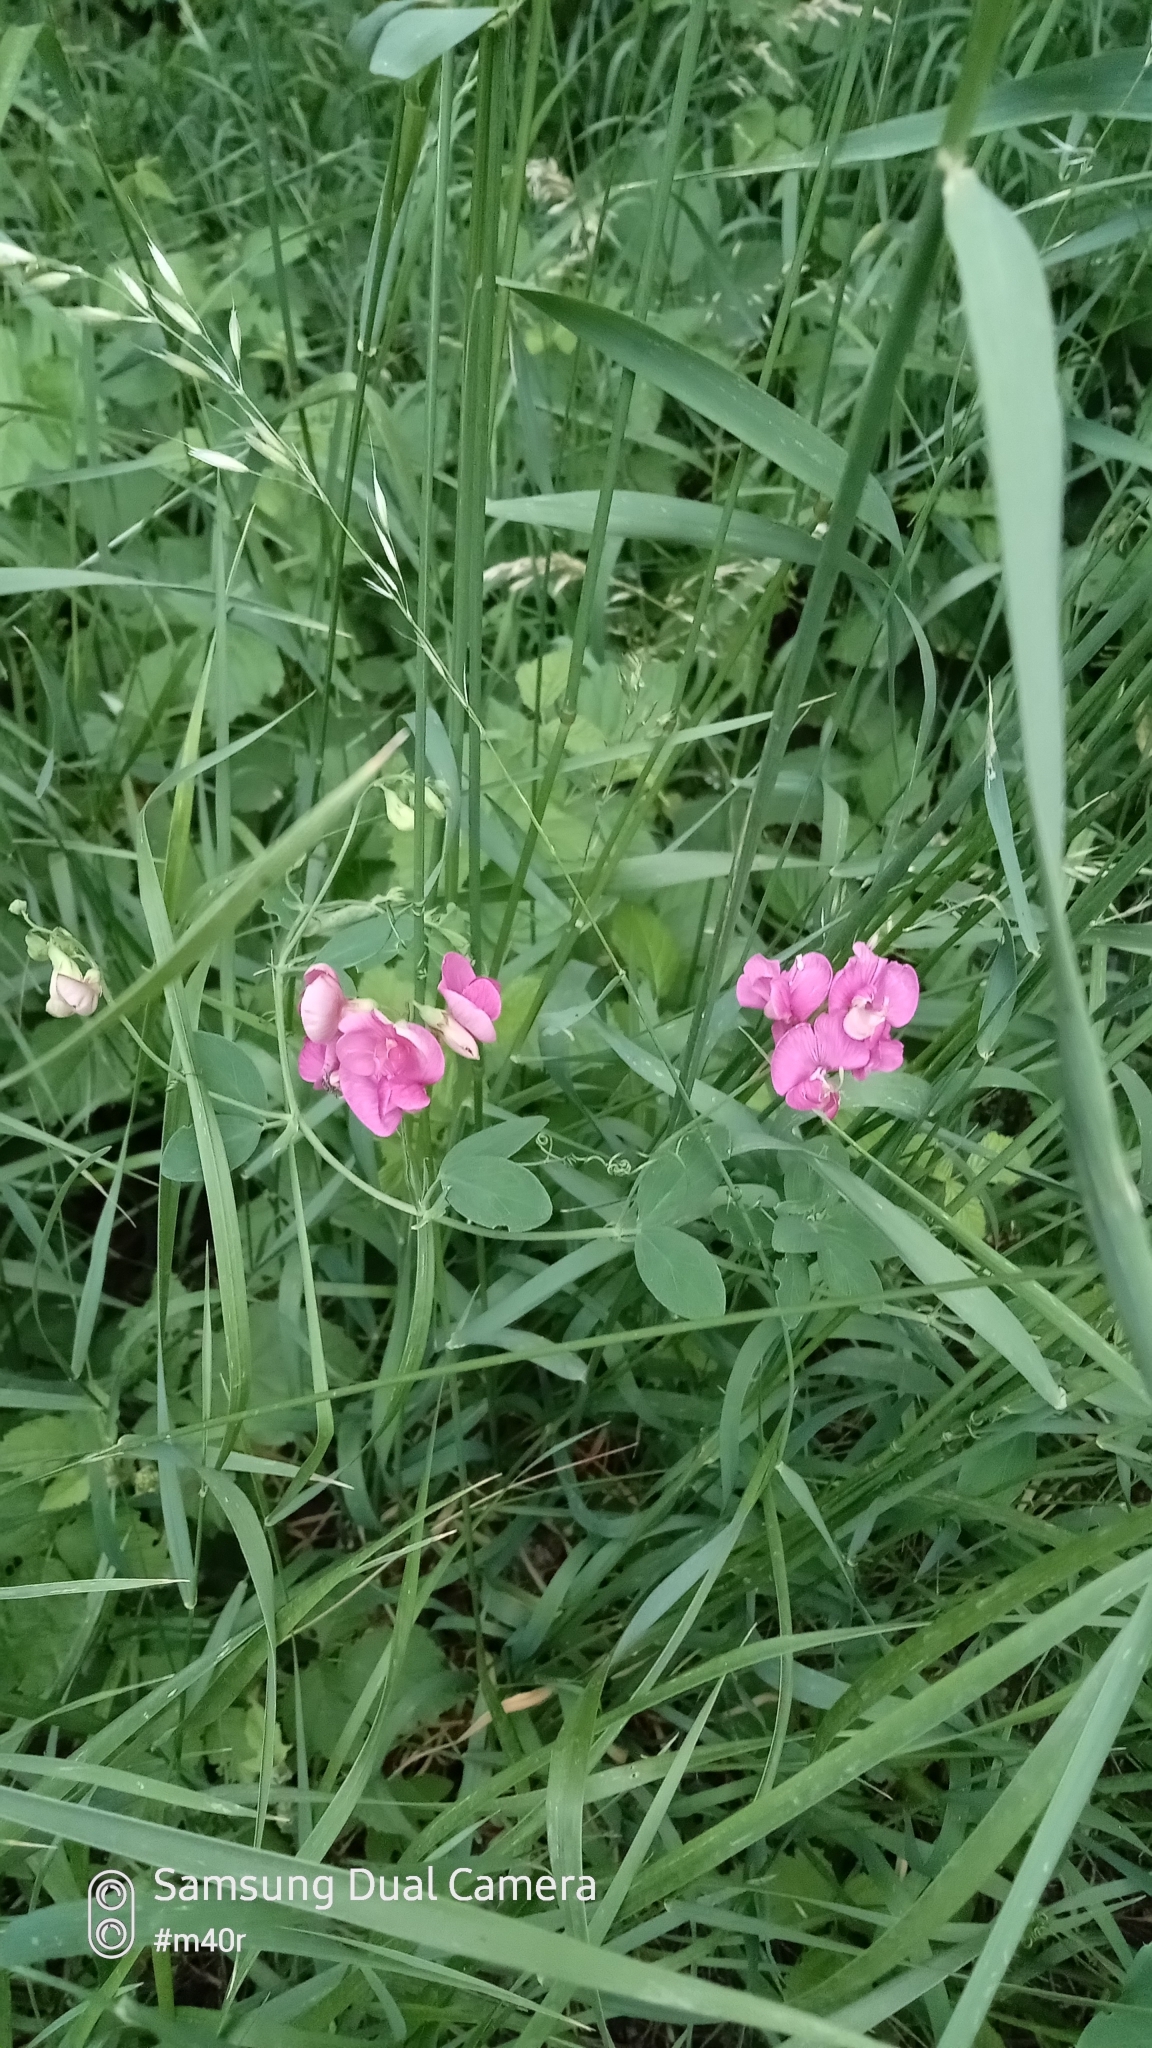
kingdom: Plantae
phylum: Tracheophyta
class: Magnoliopsida
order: Fabales
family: Fabaceae
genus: Lathyrus
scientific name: Lathyrus tuberosus
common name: Tuberous pea
